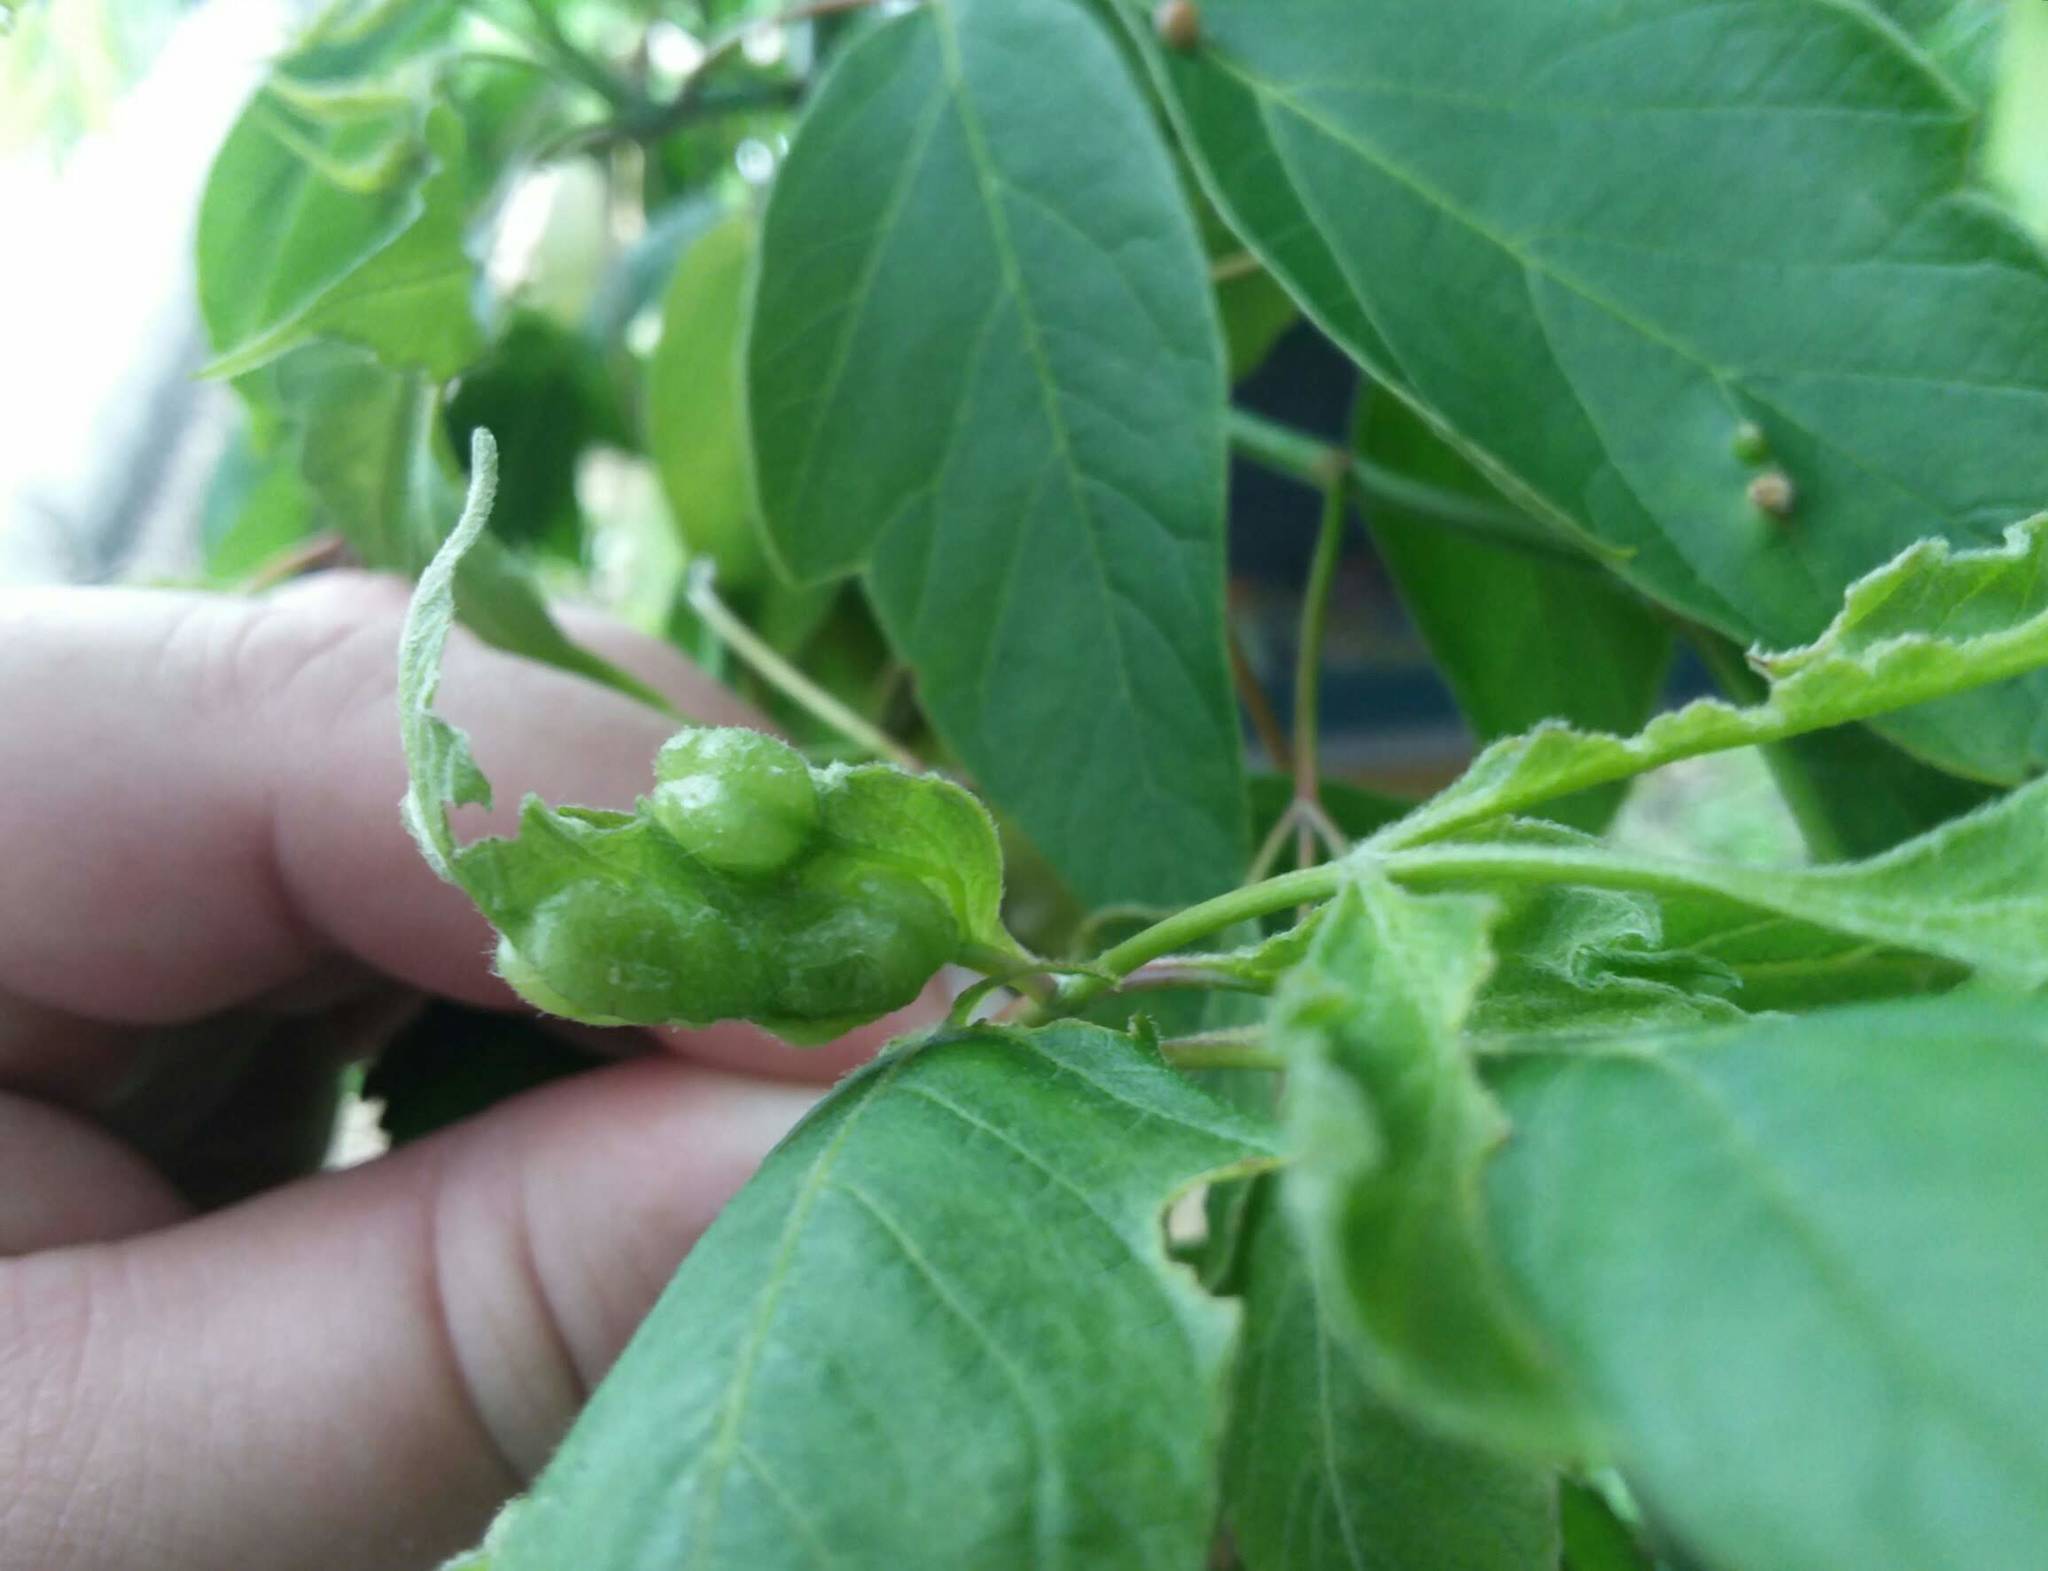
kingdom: Animalia
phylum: Arthropoda
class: Insecta
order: Diptera
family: Cecidomyiidae
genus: Contarinia
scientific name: Contarinia negundinis
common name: Boxelder budgall midge
